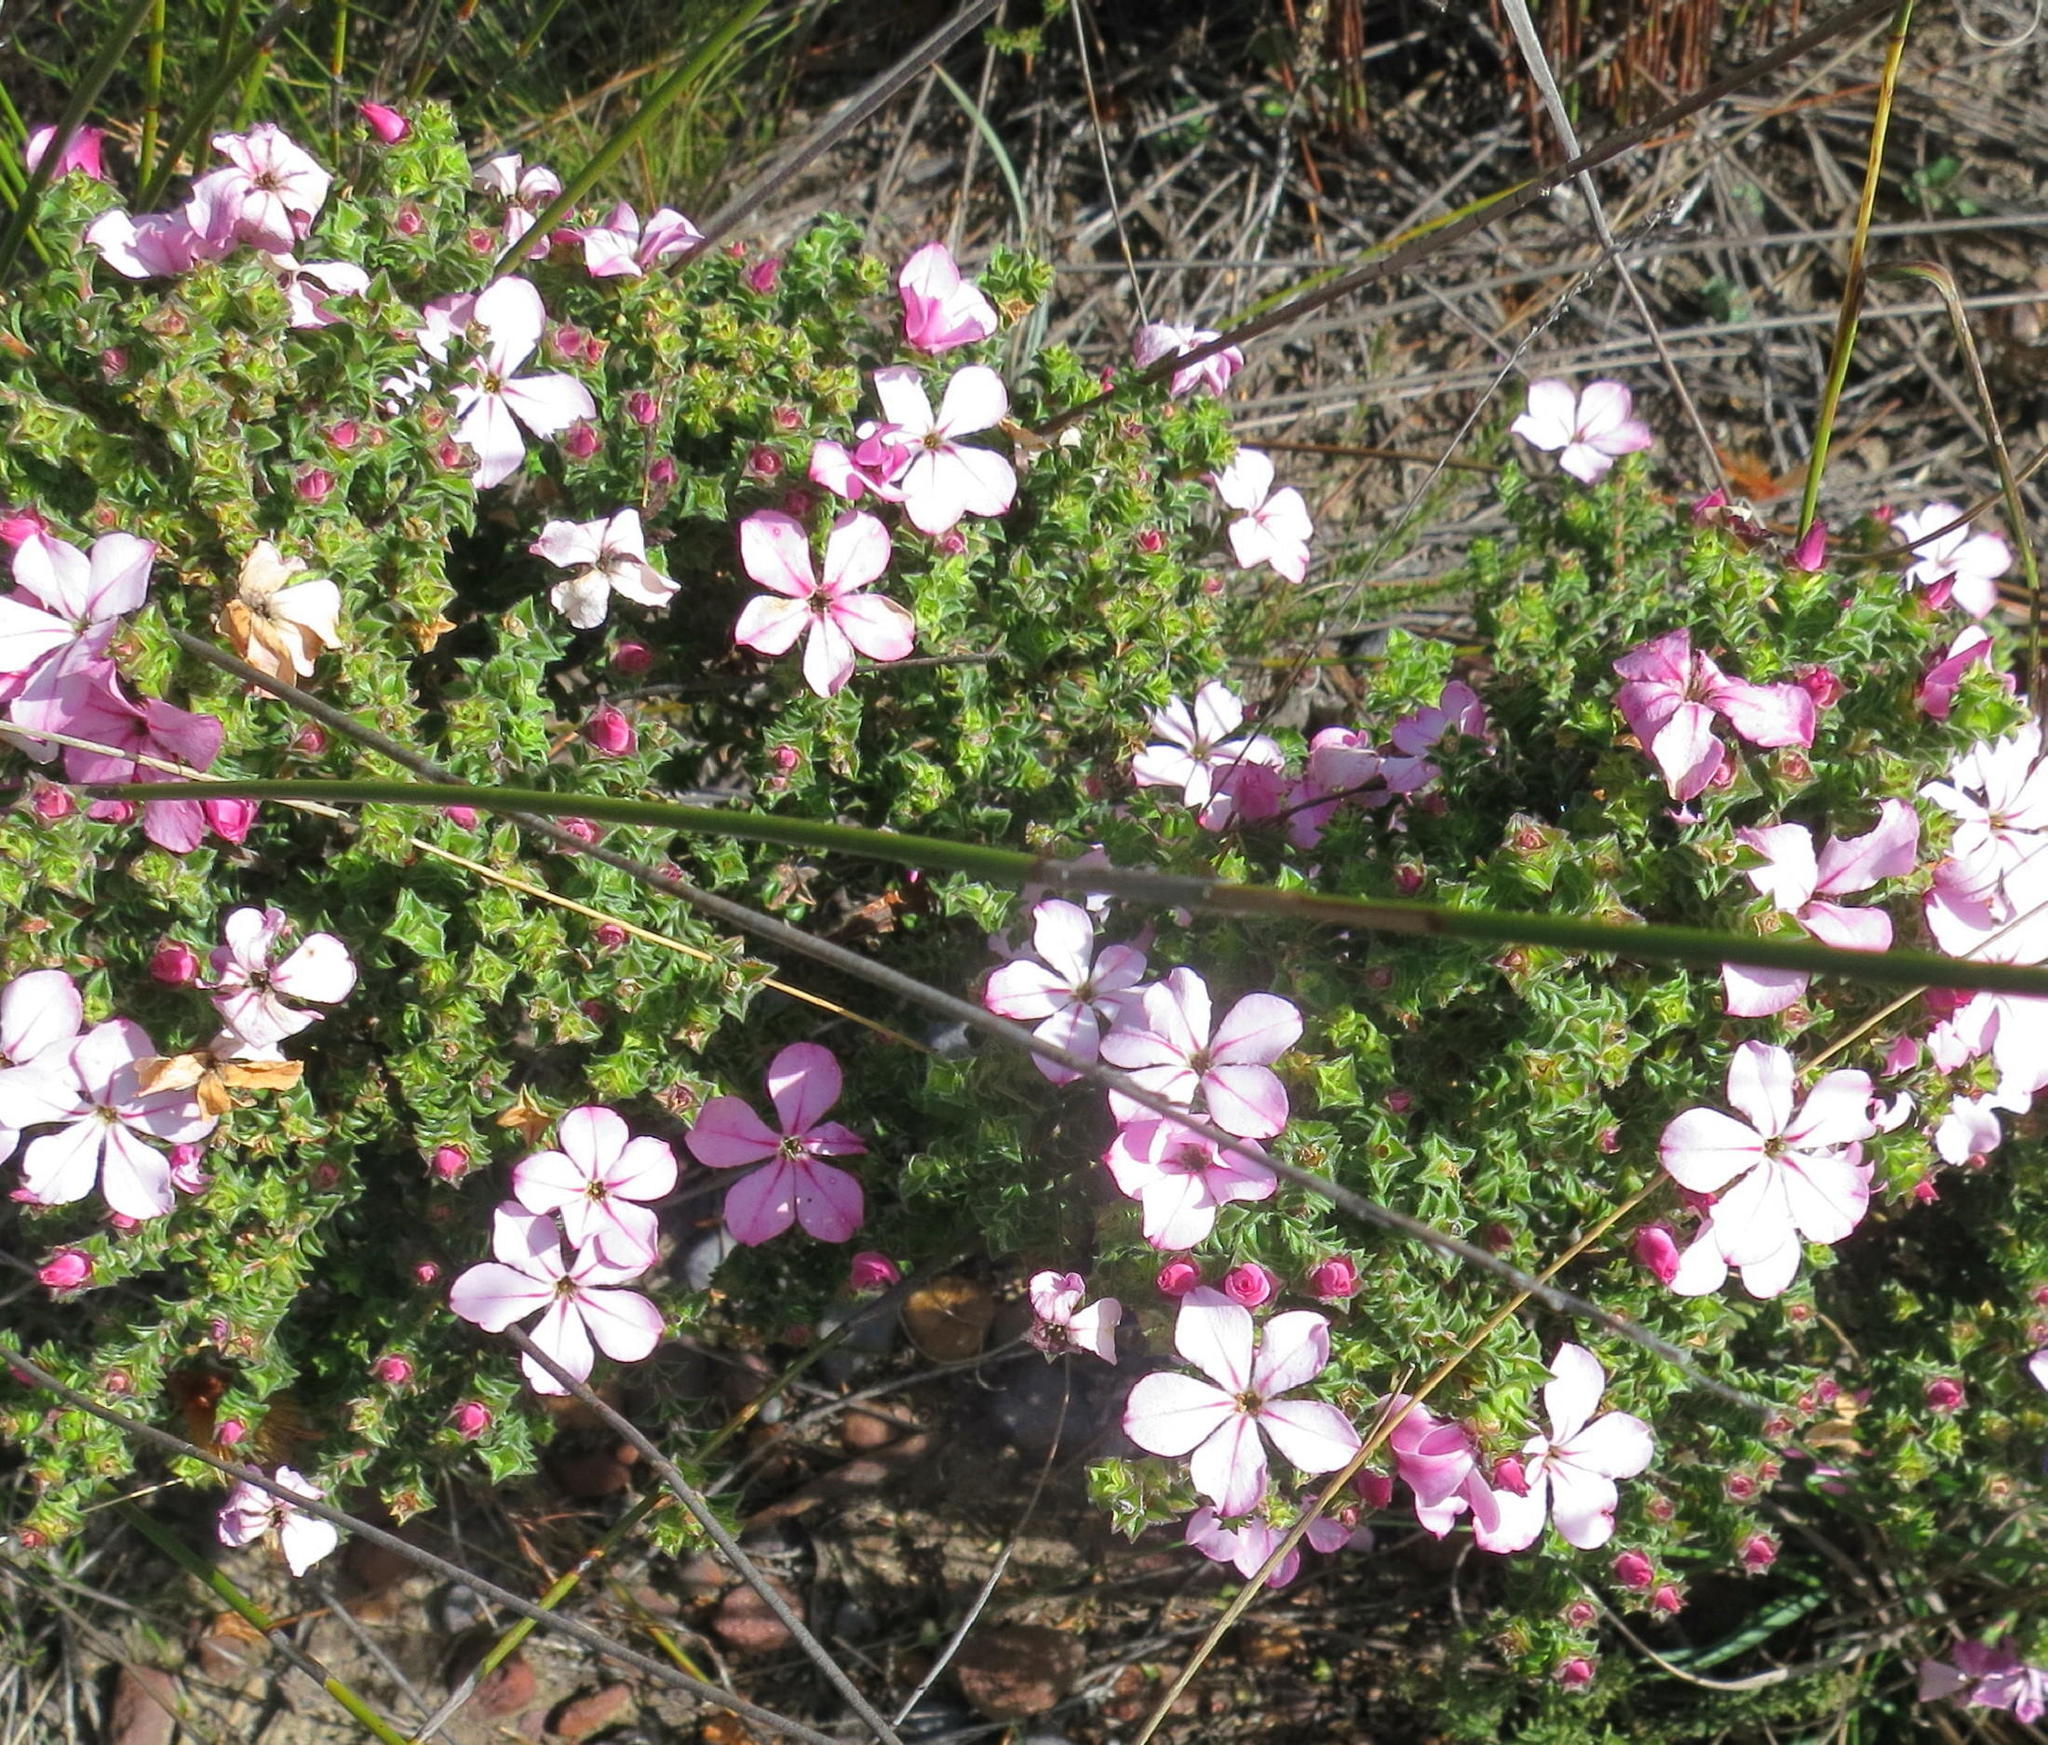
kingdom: Plantae
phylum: Tracheophyta
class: Magnoliopsida
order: Sapindales
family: Rutaceae
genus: Acmadenia
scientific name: Acmadenia tetragona
